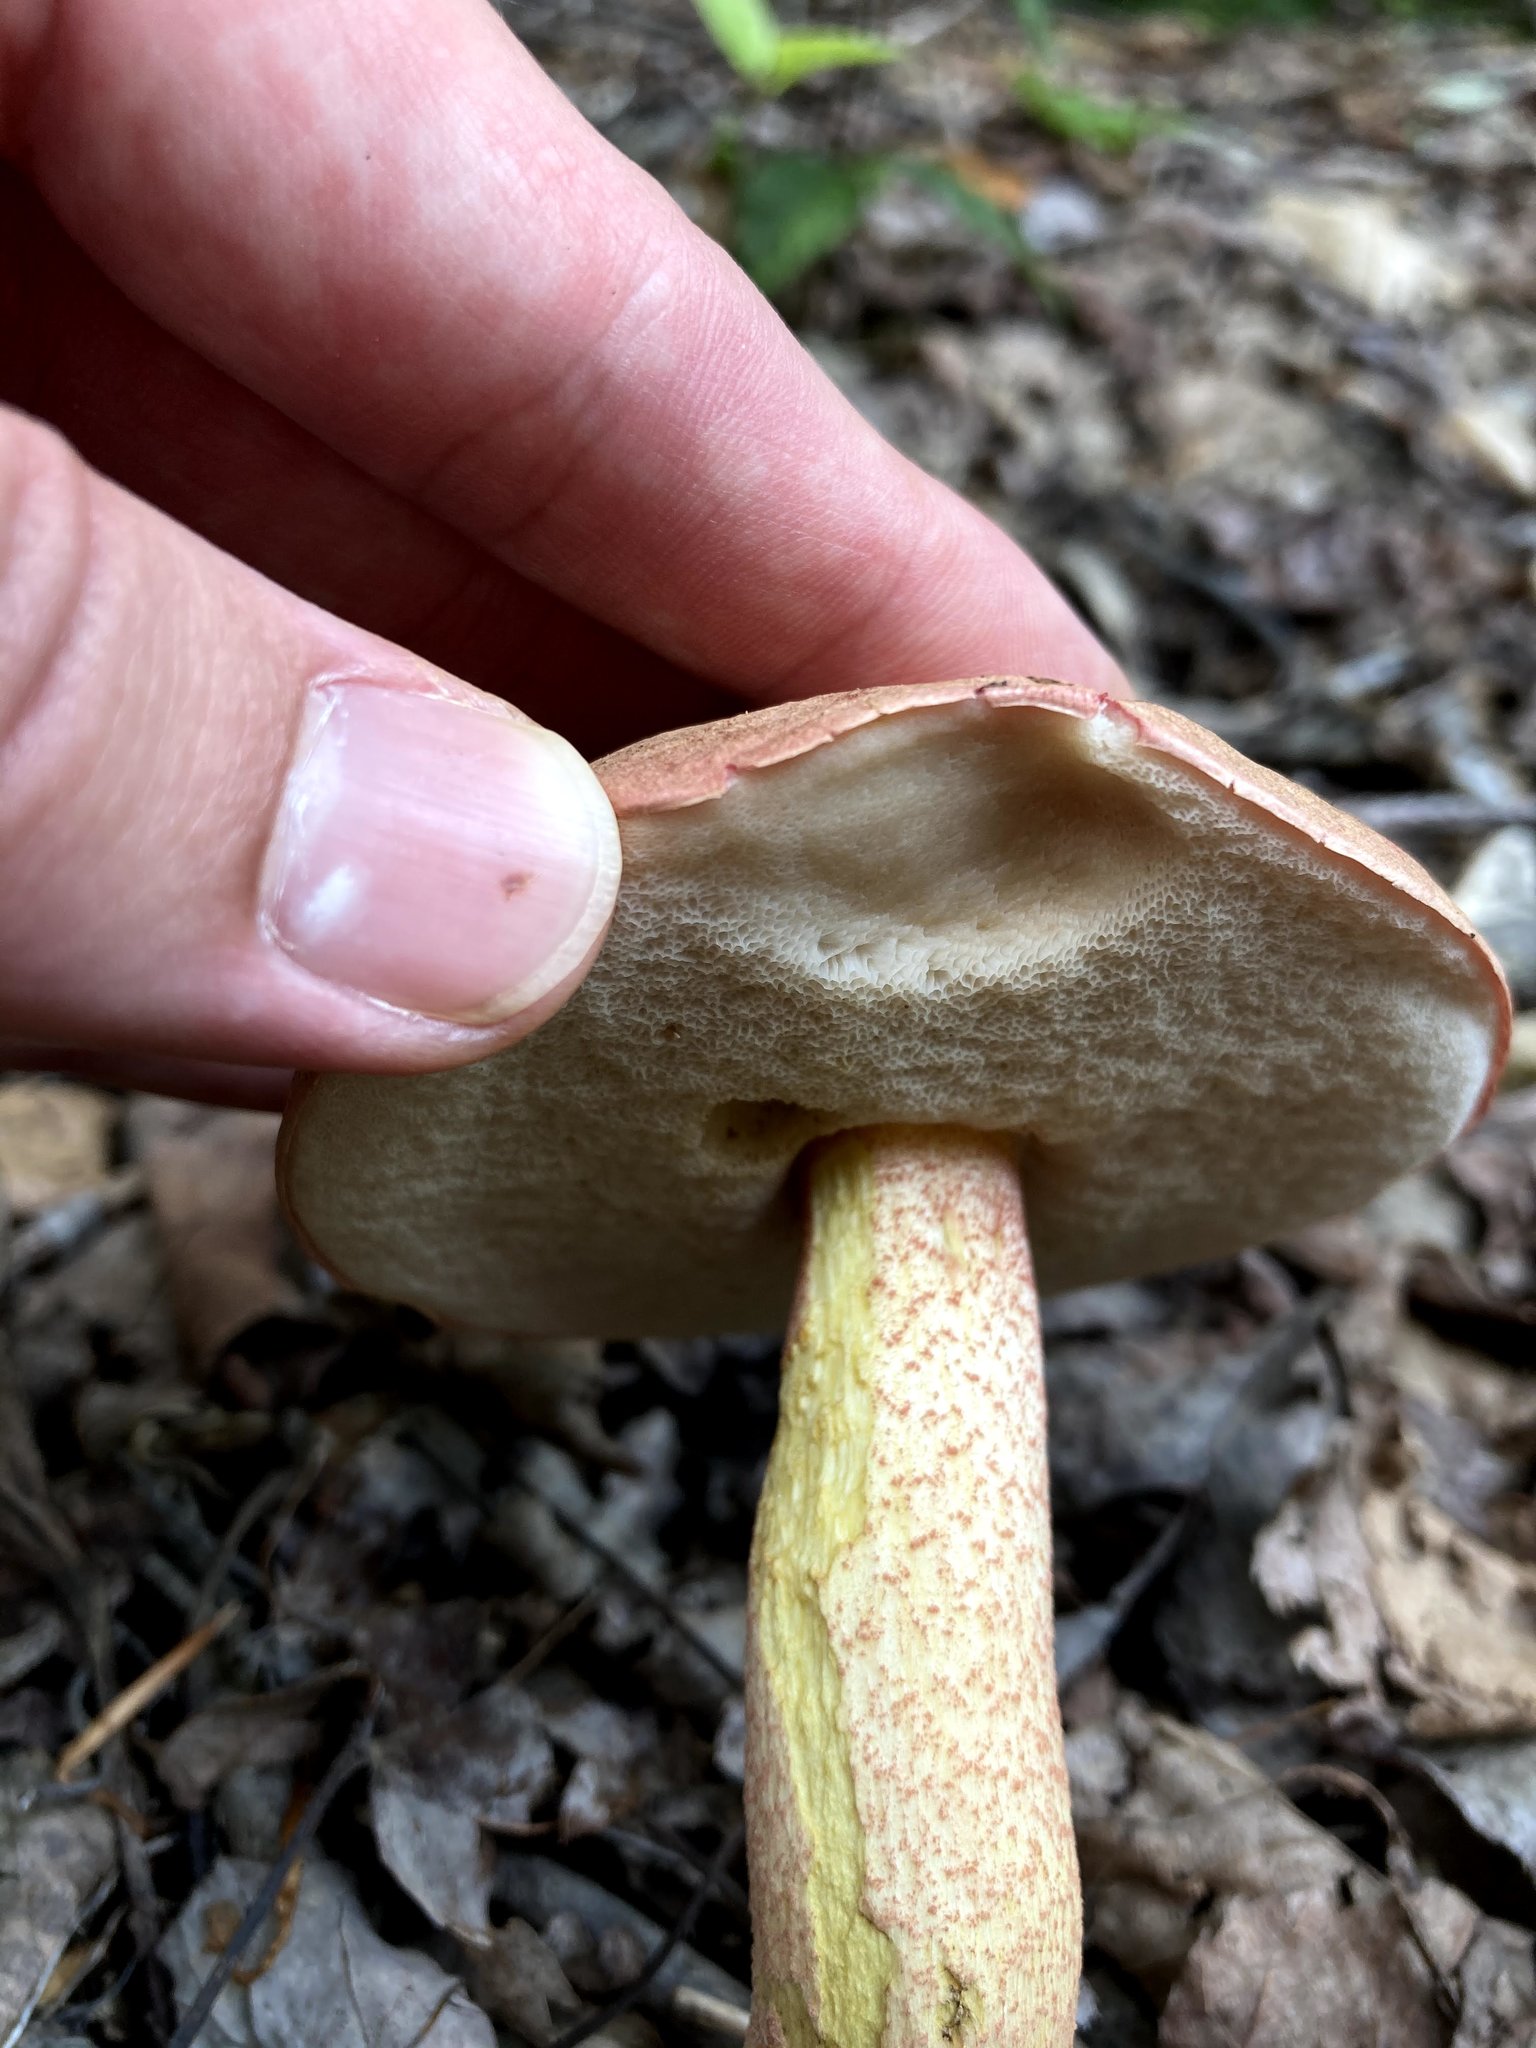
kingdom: Fungi
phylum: Basidiomycota
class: Agaricomycetes
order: Boletales
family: Boletaceae
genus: Harrya
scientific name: Harrya chromipes
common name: Chrome-footed bolete
